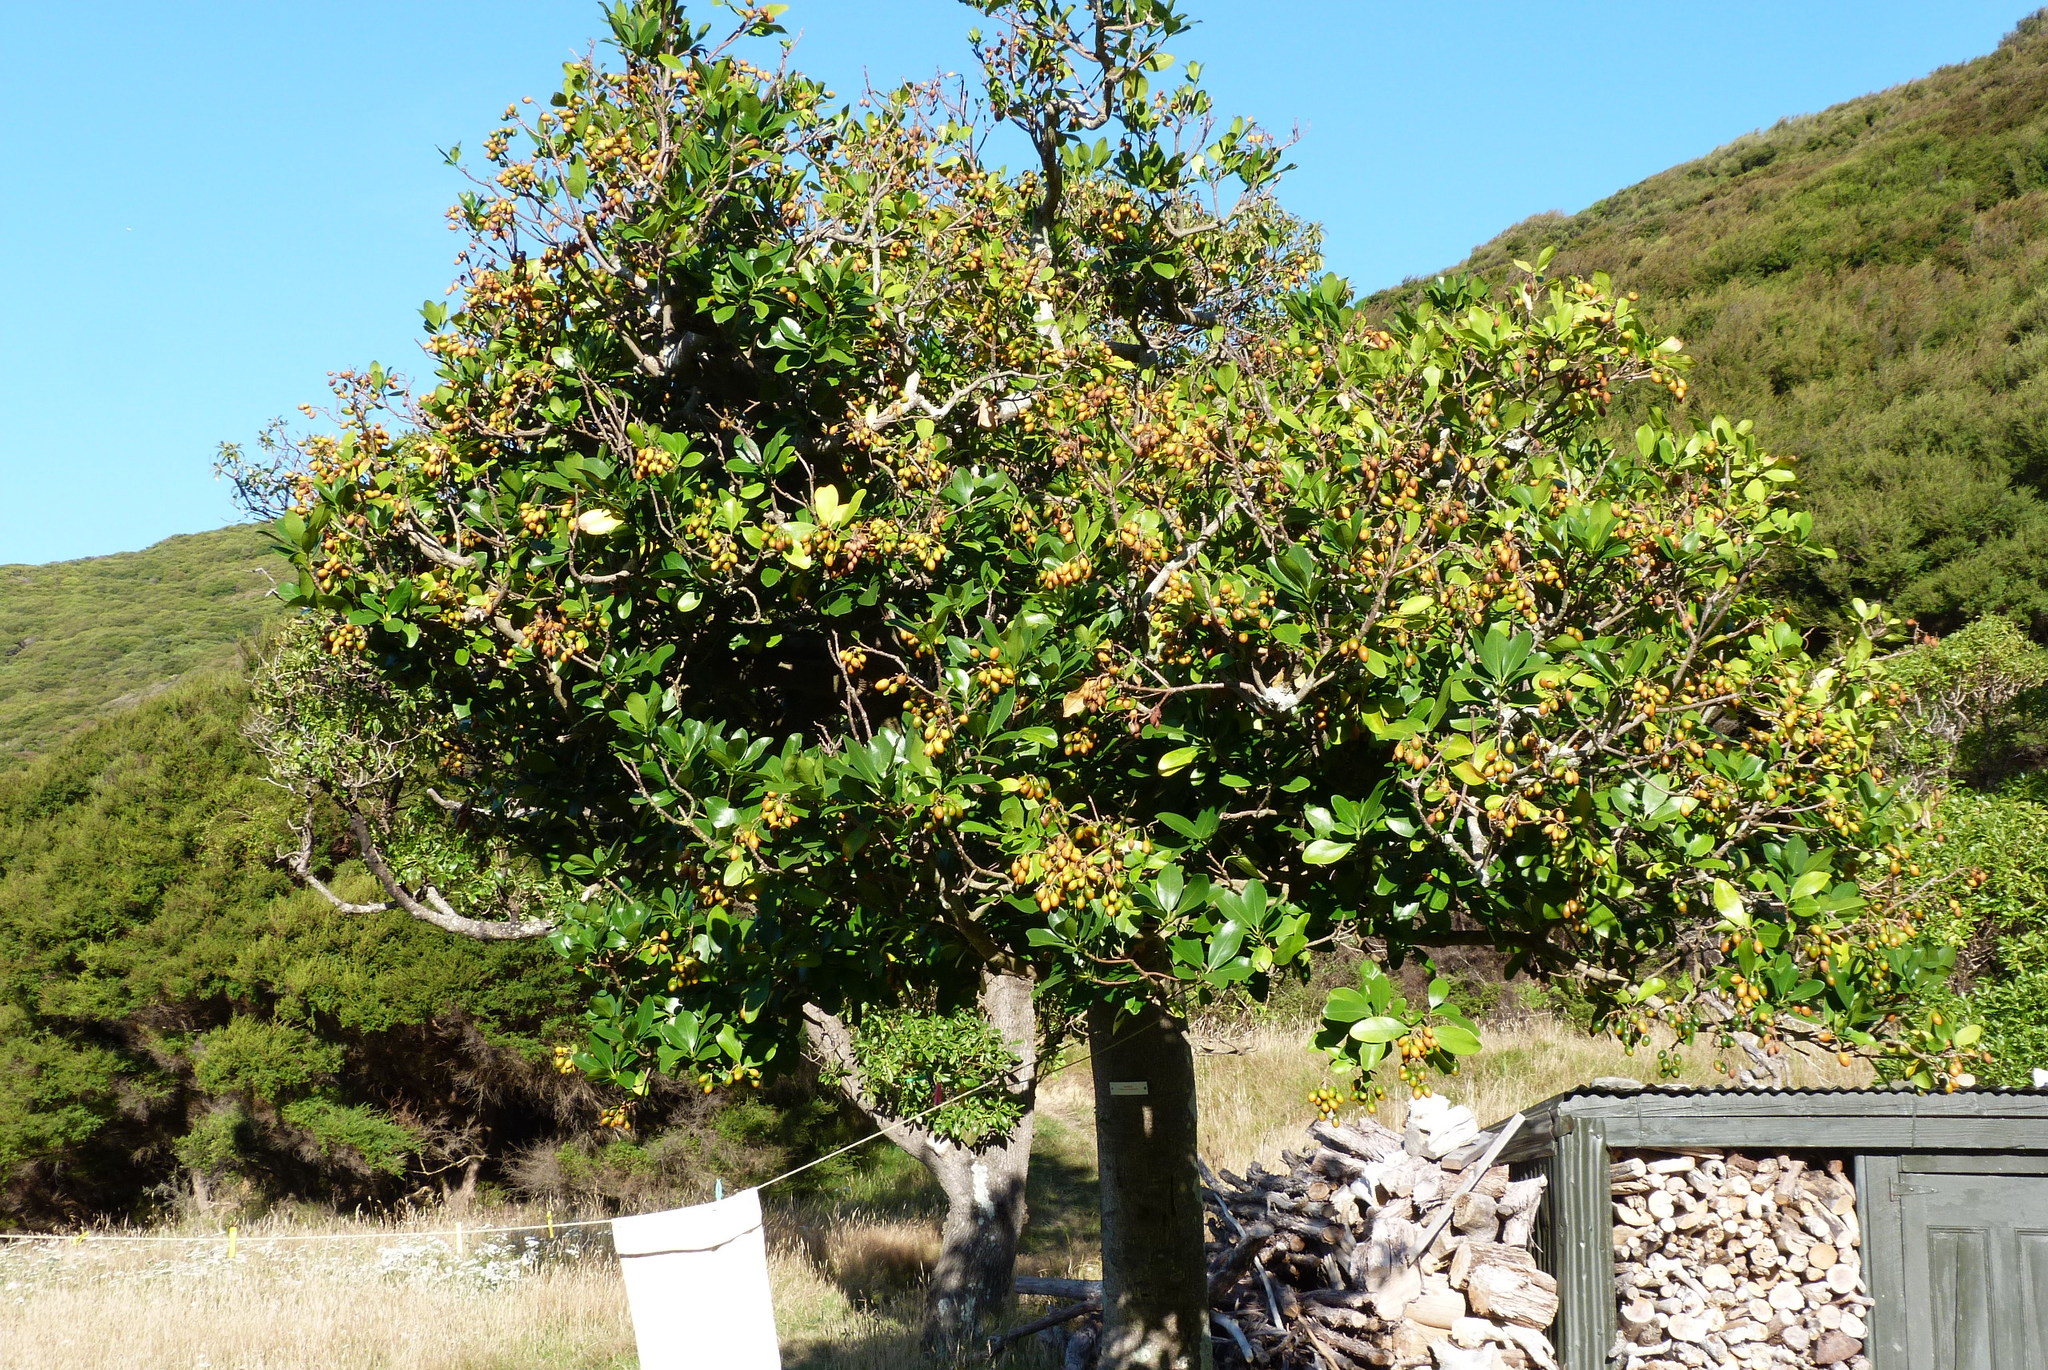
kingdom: Plantae
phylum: Tracheophyta
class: Magnoliopsida
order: Cucurbitales
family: Corynocarpaceae
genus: Corynocarpus
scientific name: Corynocarpus laevigatus
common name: New zealand laurel
